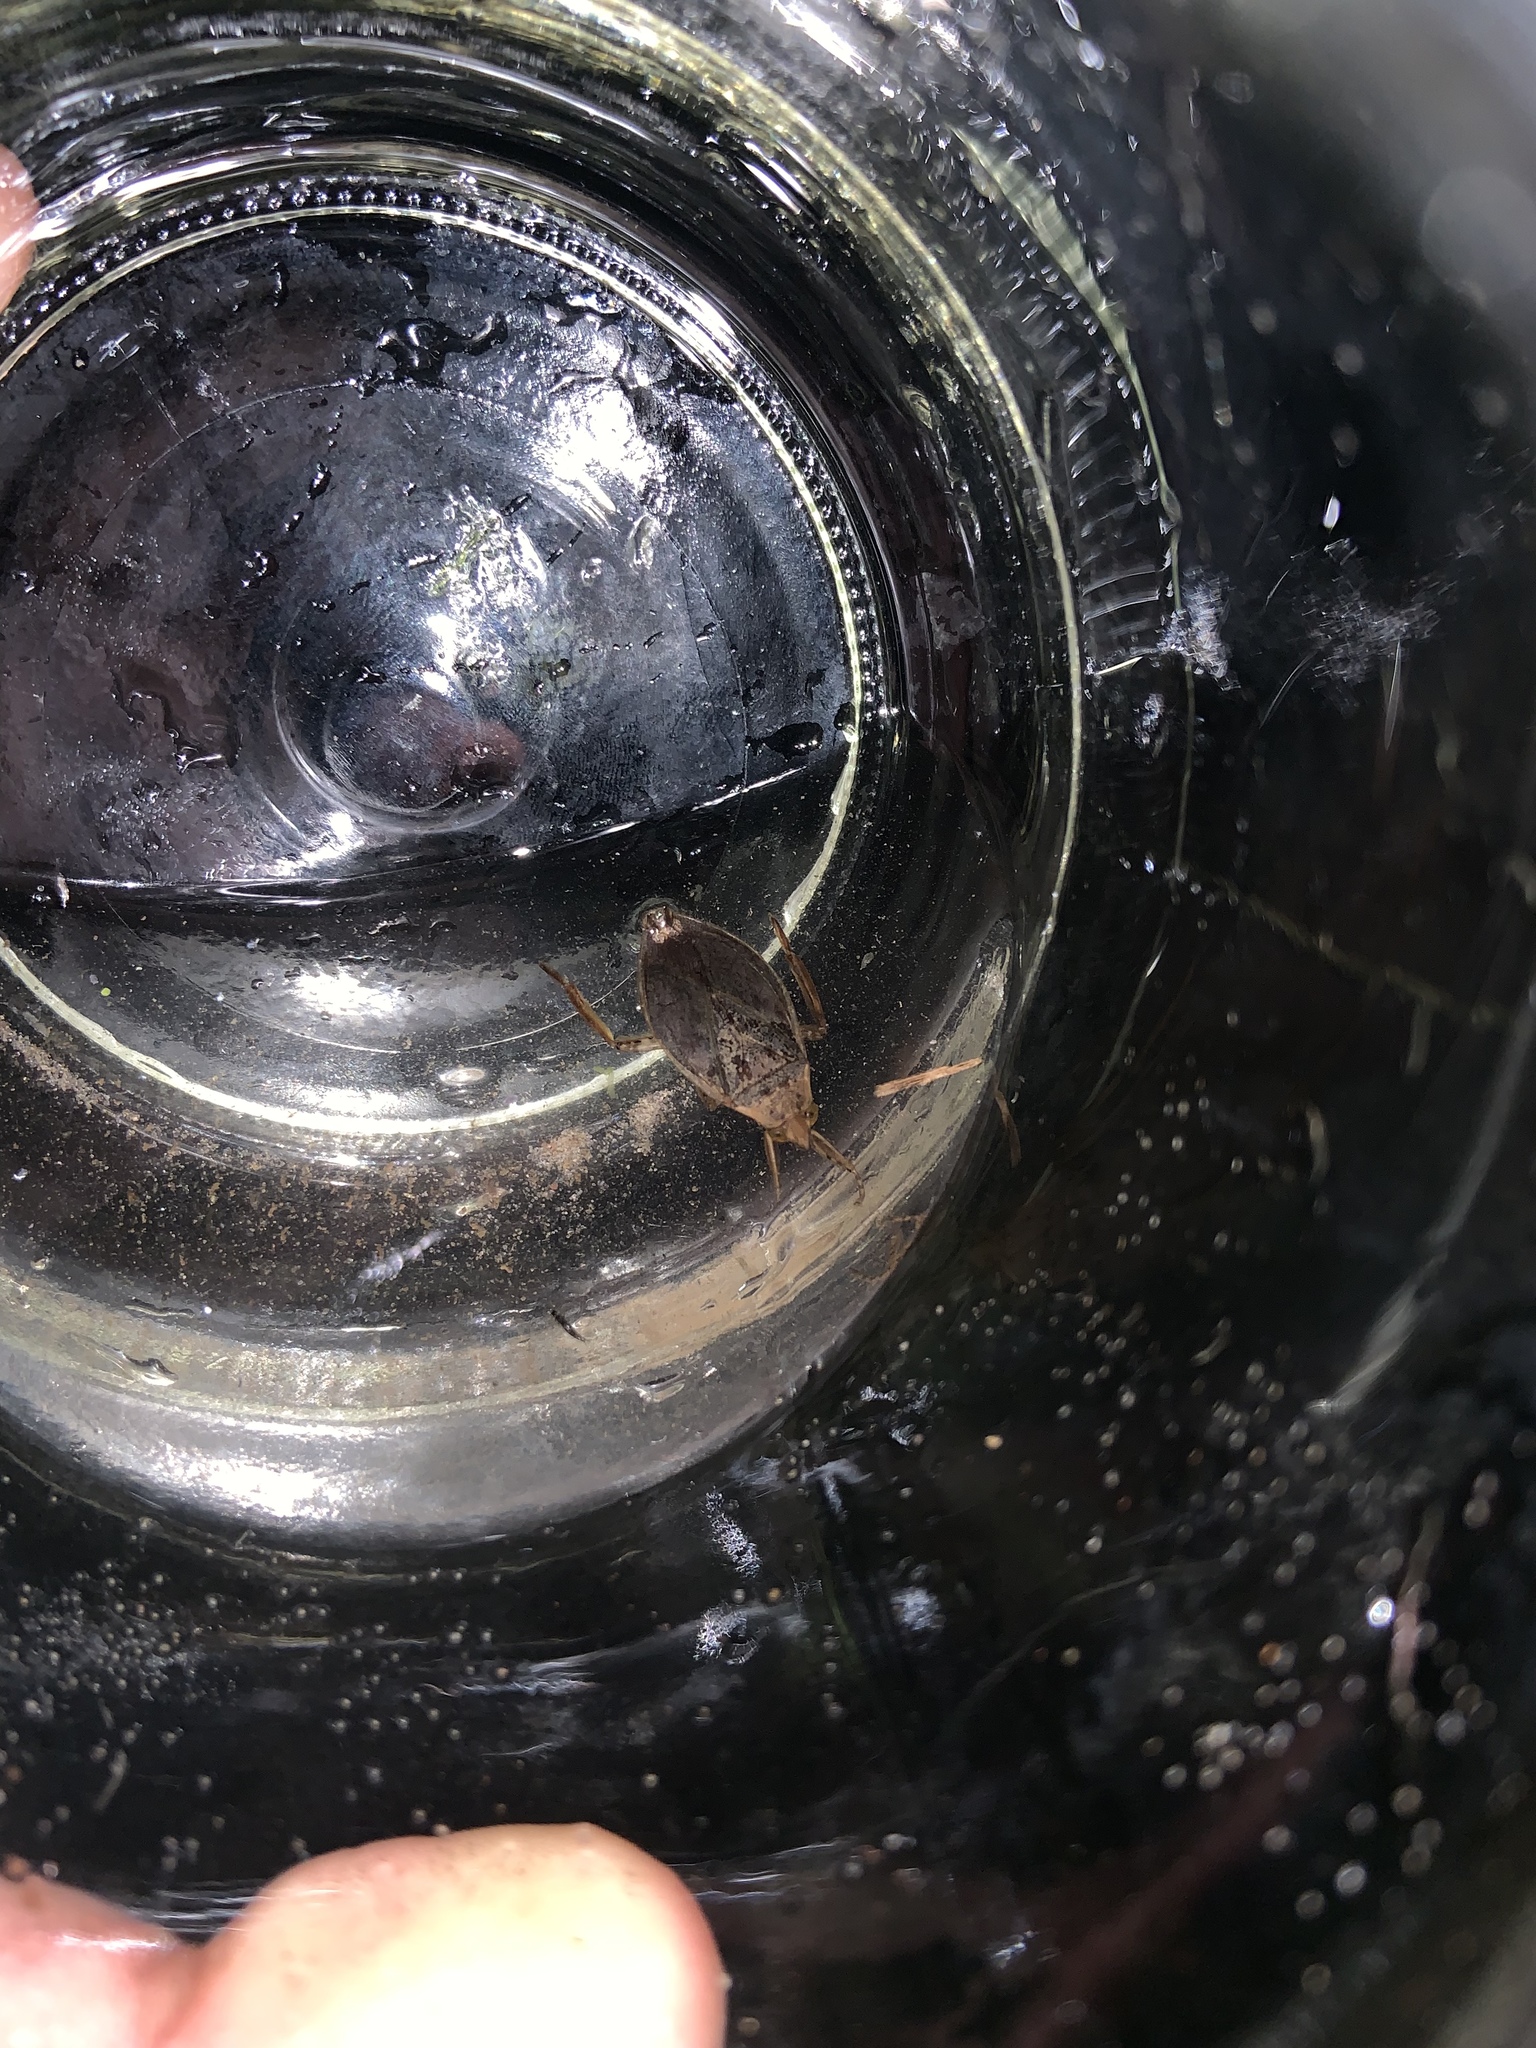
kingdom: Animalia
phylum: Arthropoda
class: Insecta
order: Hemiptera
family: Belostomatidae
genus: Belostoma
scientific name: Belostoma
